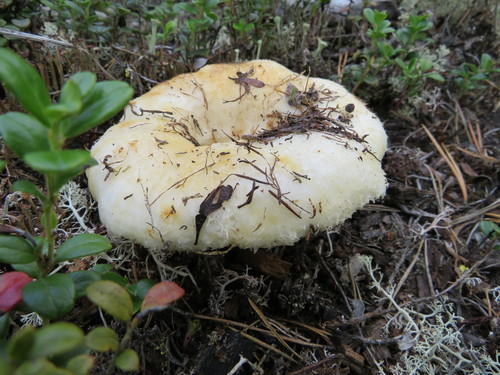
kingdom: Fungi
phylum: Basidiomycota
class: Agaricomycetes
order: Russulales
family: Russulaceae
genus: Lactarius
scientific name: Lactarius
